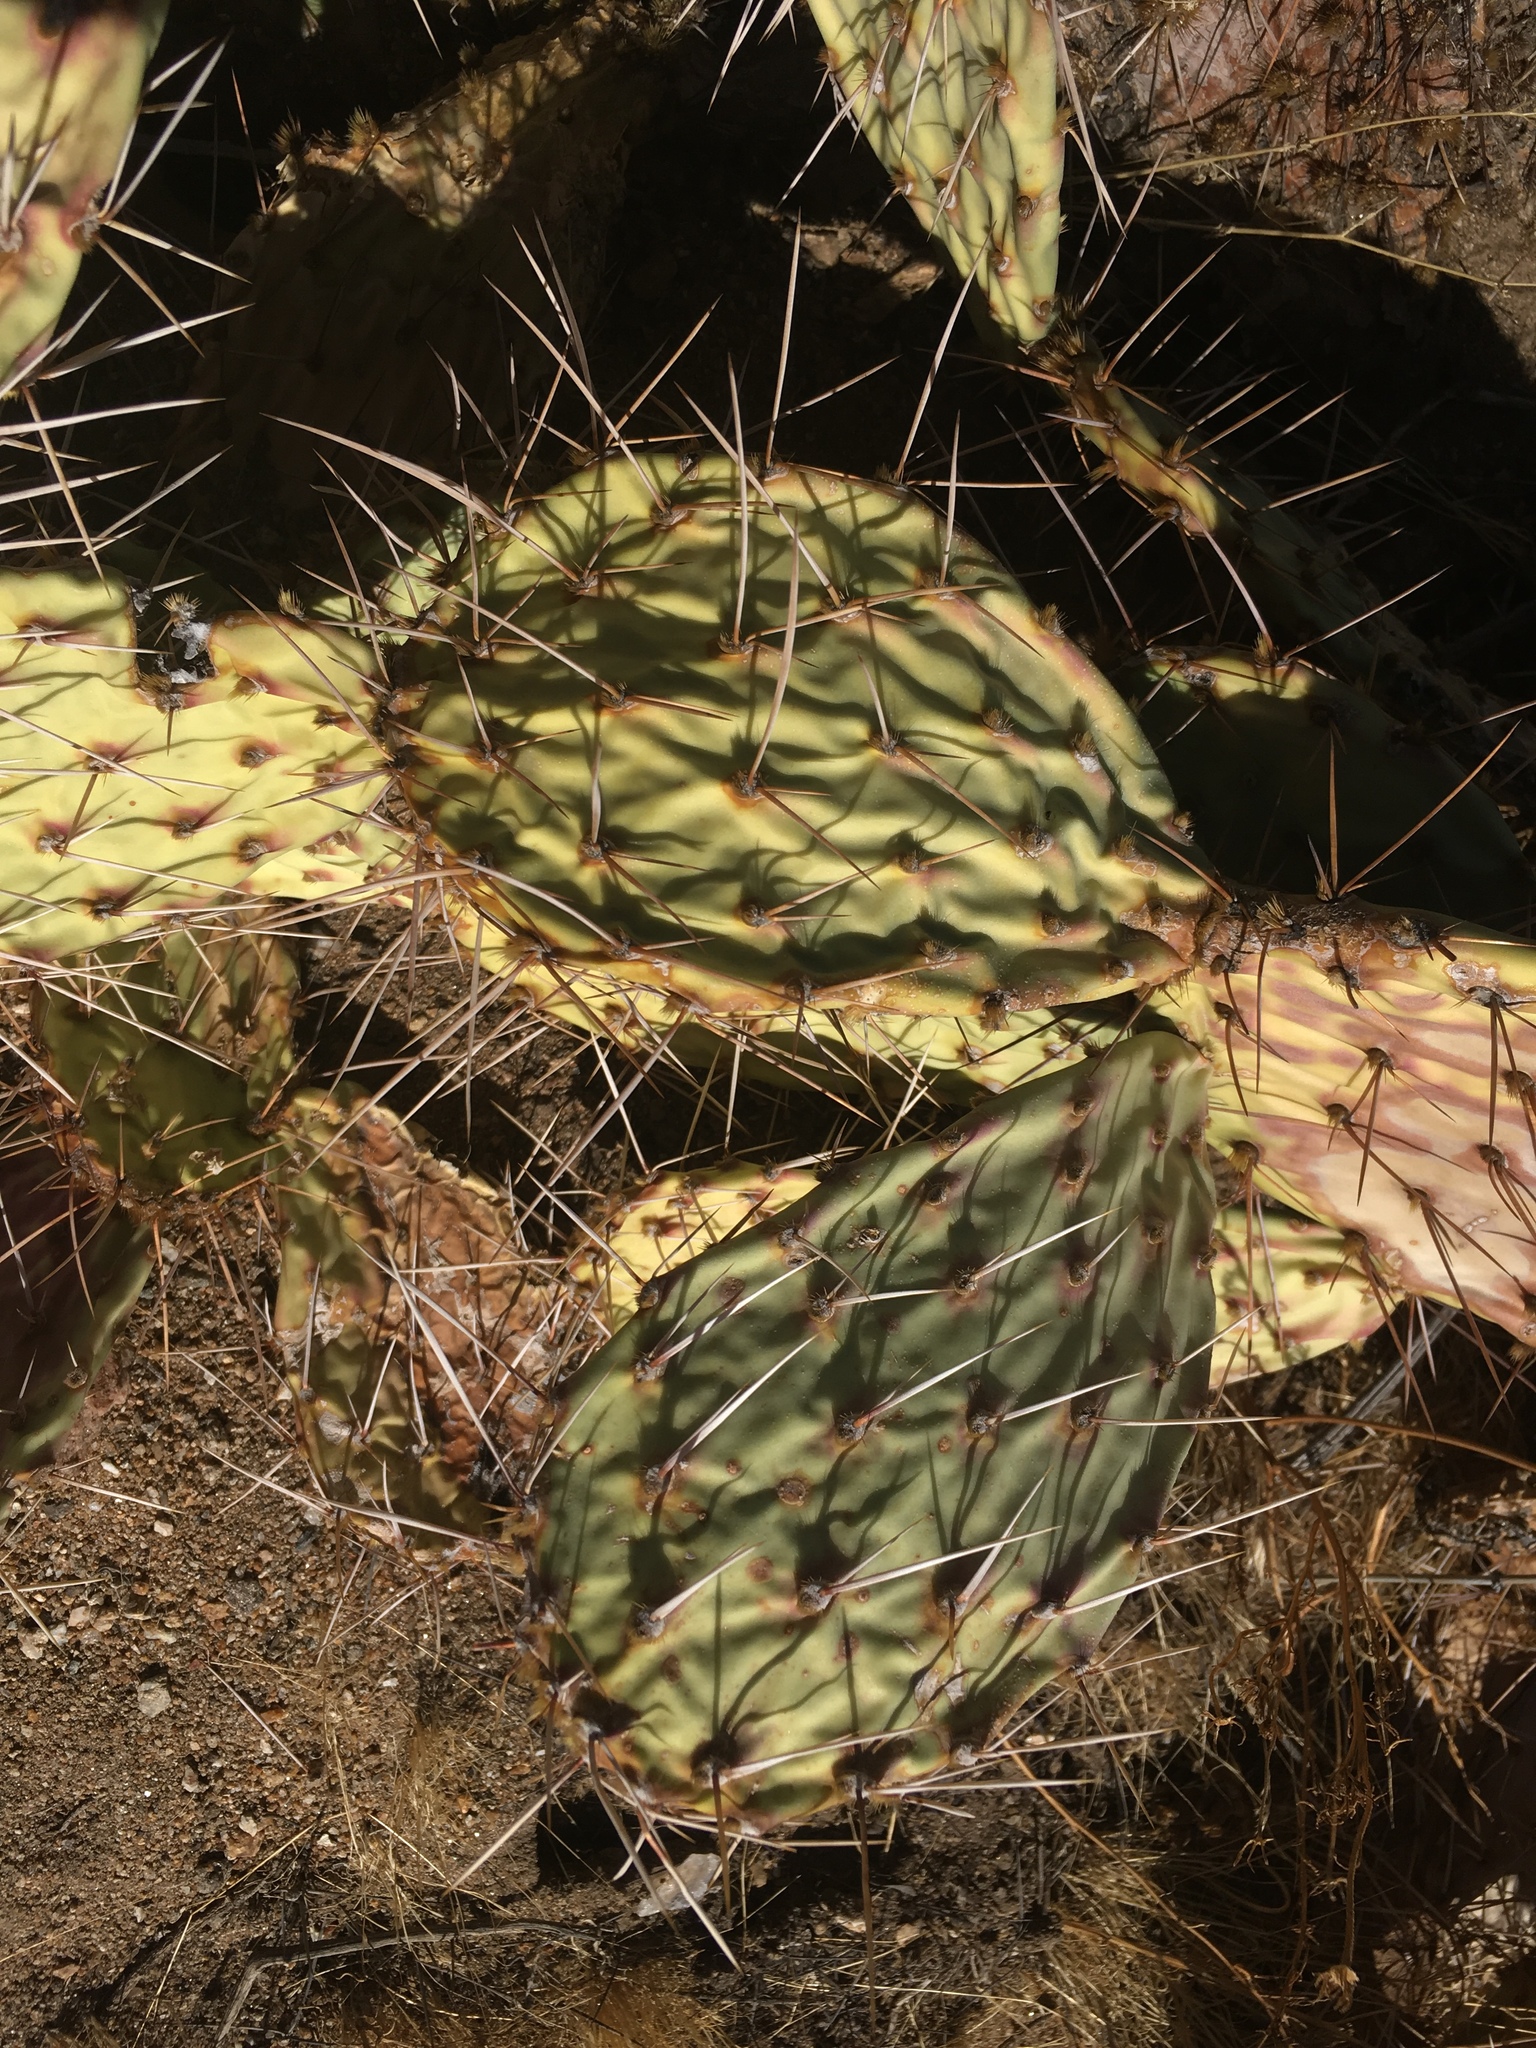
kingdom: Plantae
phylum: Tracheophyta
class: Magnoliopsida
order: Caryophyllales
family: Cactaceae
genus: Opuntia
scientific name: Opuntia phaeacantha
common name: New mexico prickly-pear
